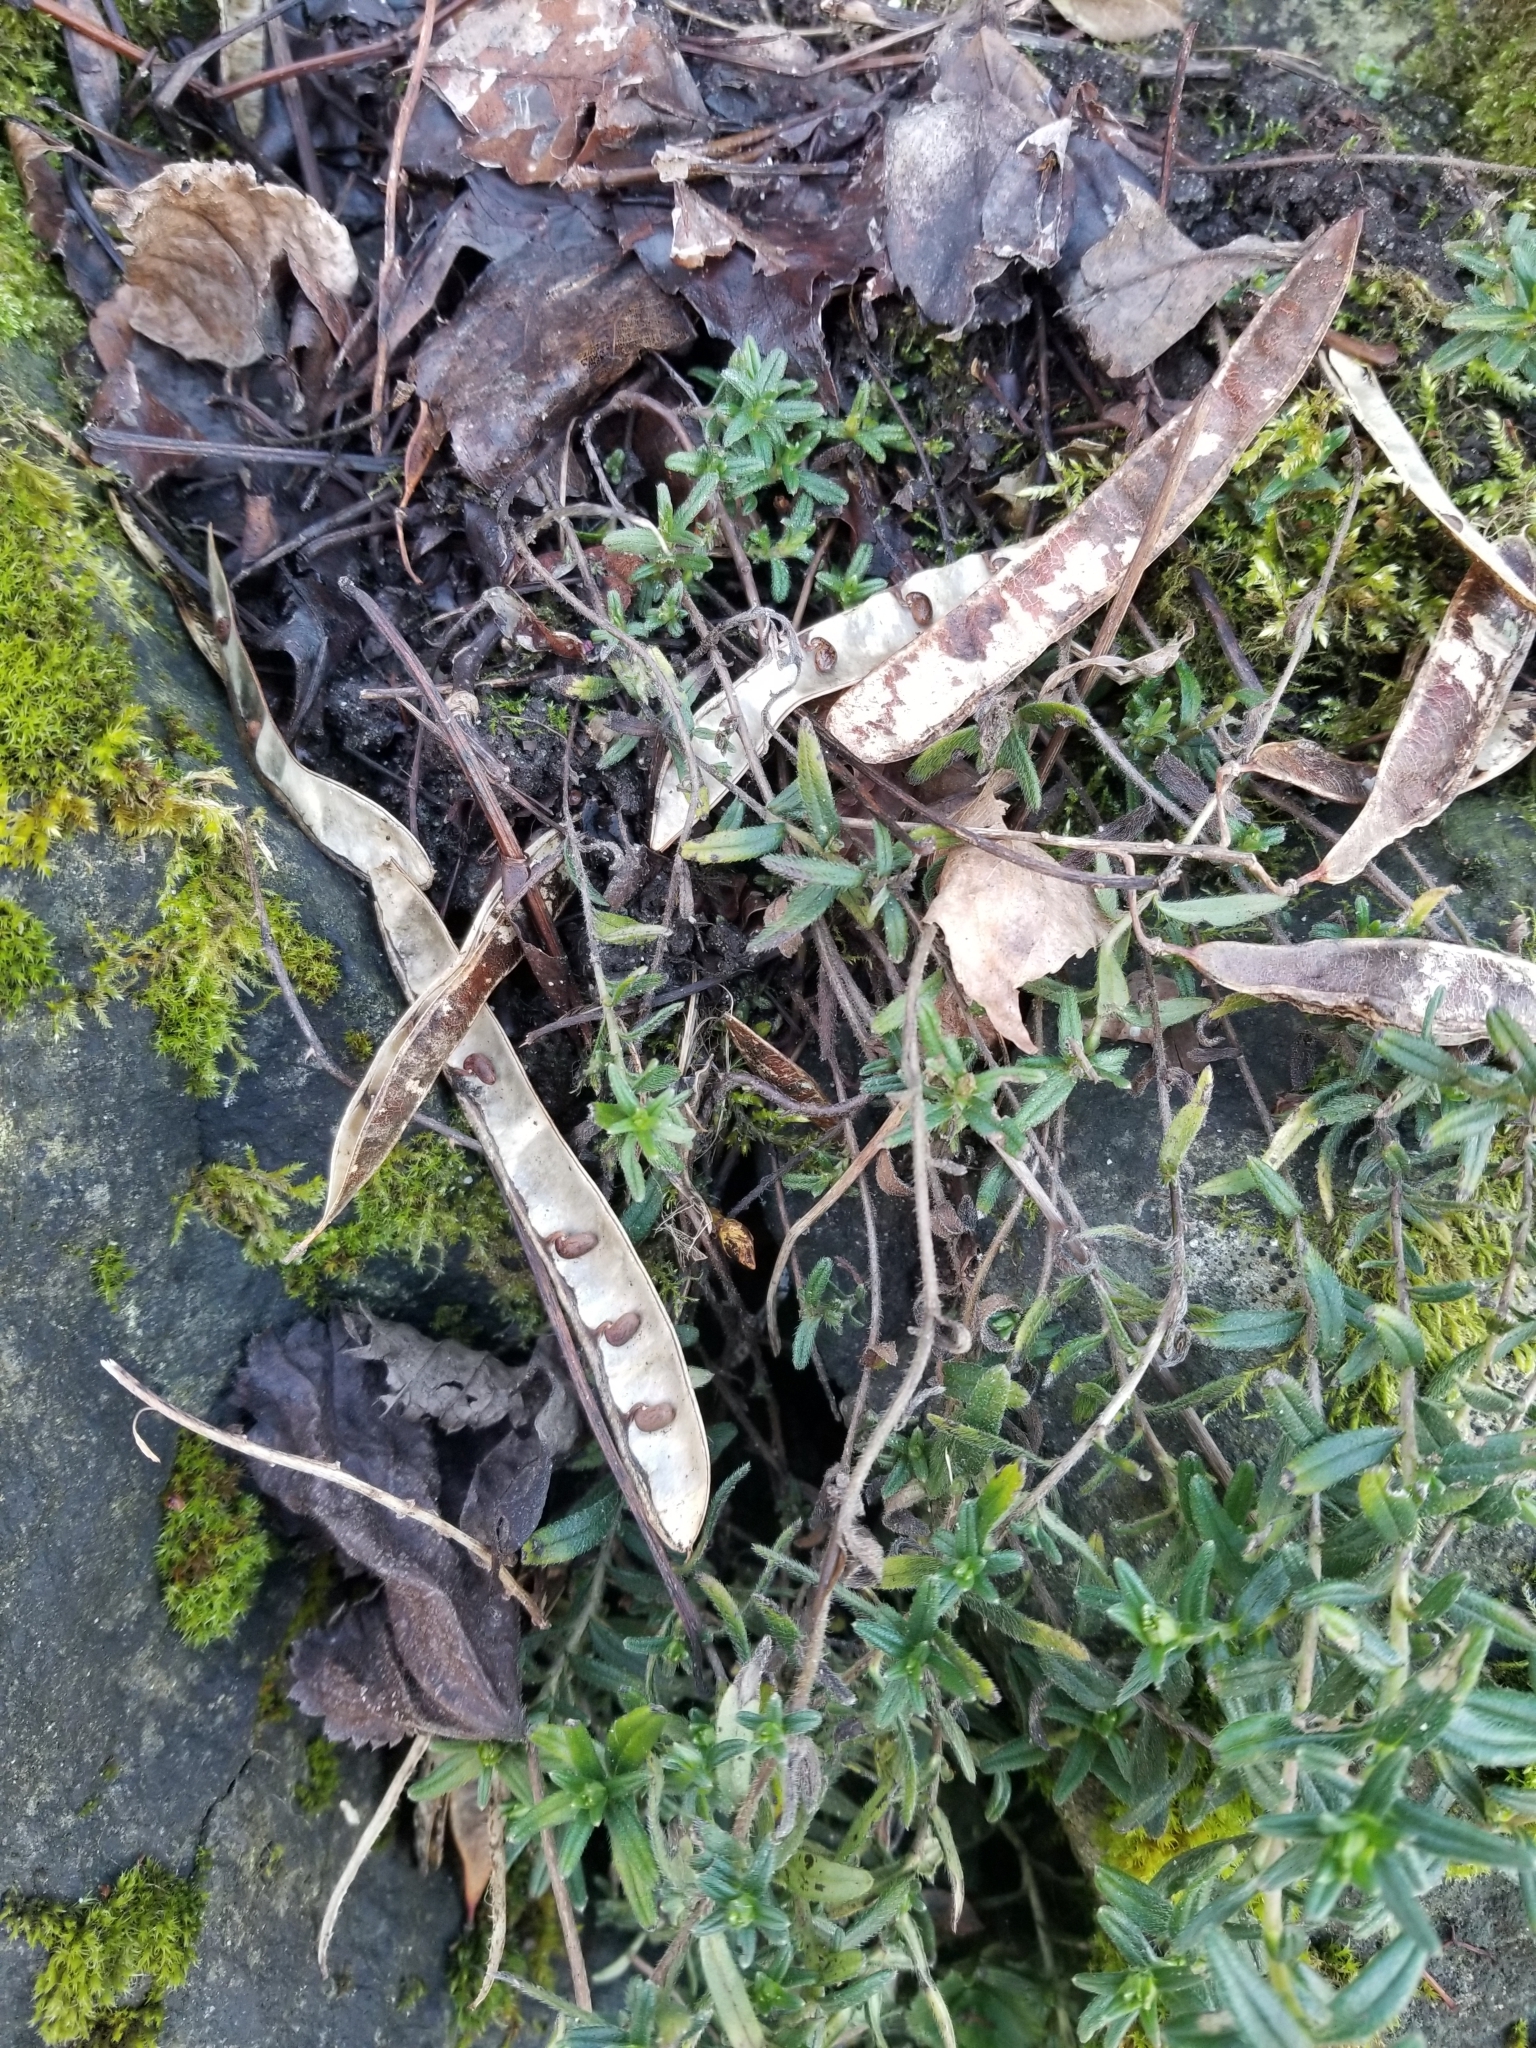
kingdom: Plantae
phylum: Tracheophyta
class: Magnoliopsida
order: Fabales
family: Fabaceae
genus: Robinia
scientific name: Robinia pseudoacacia
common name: Black locust
